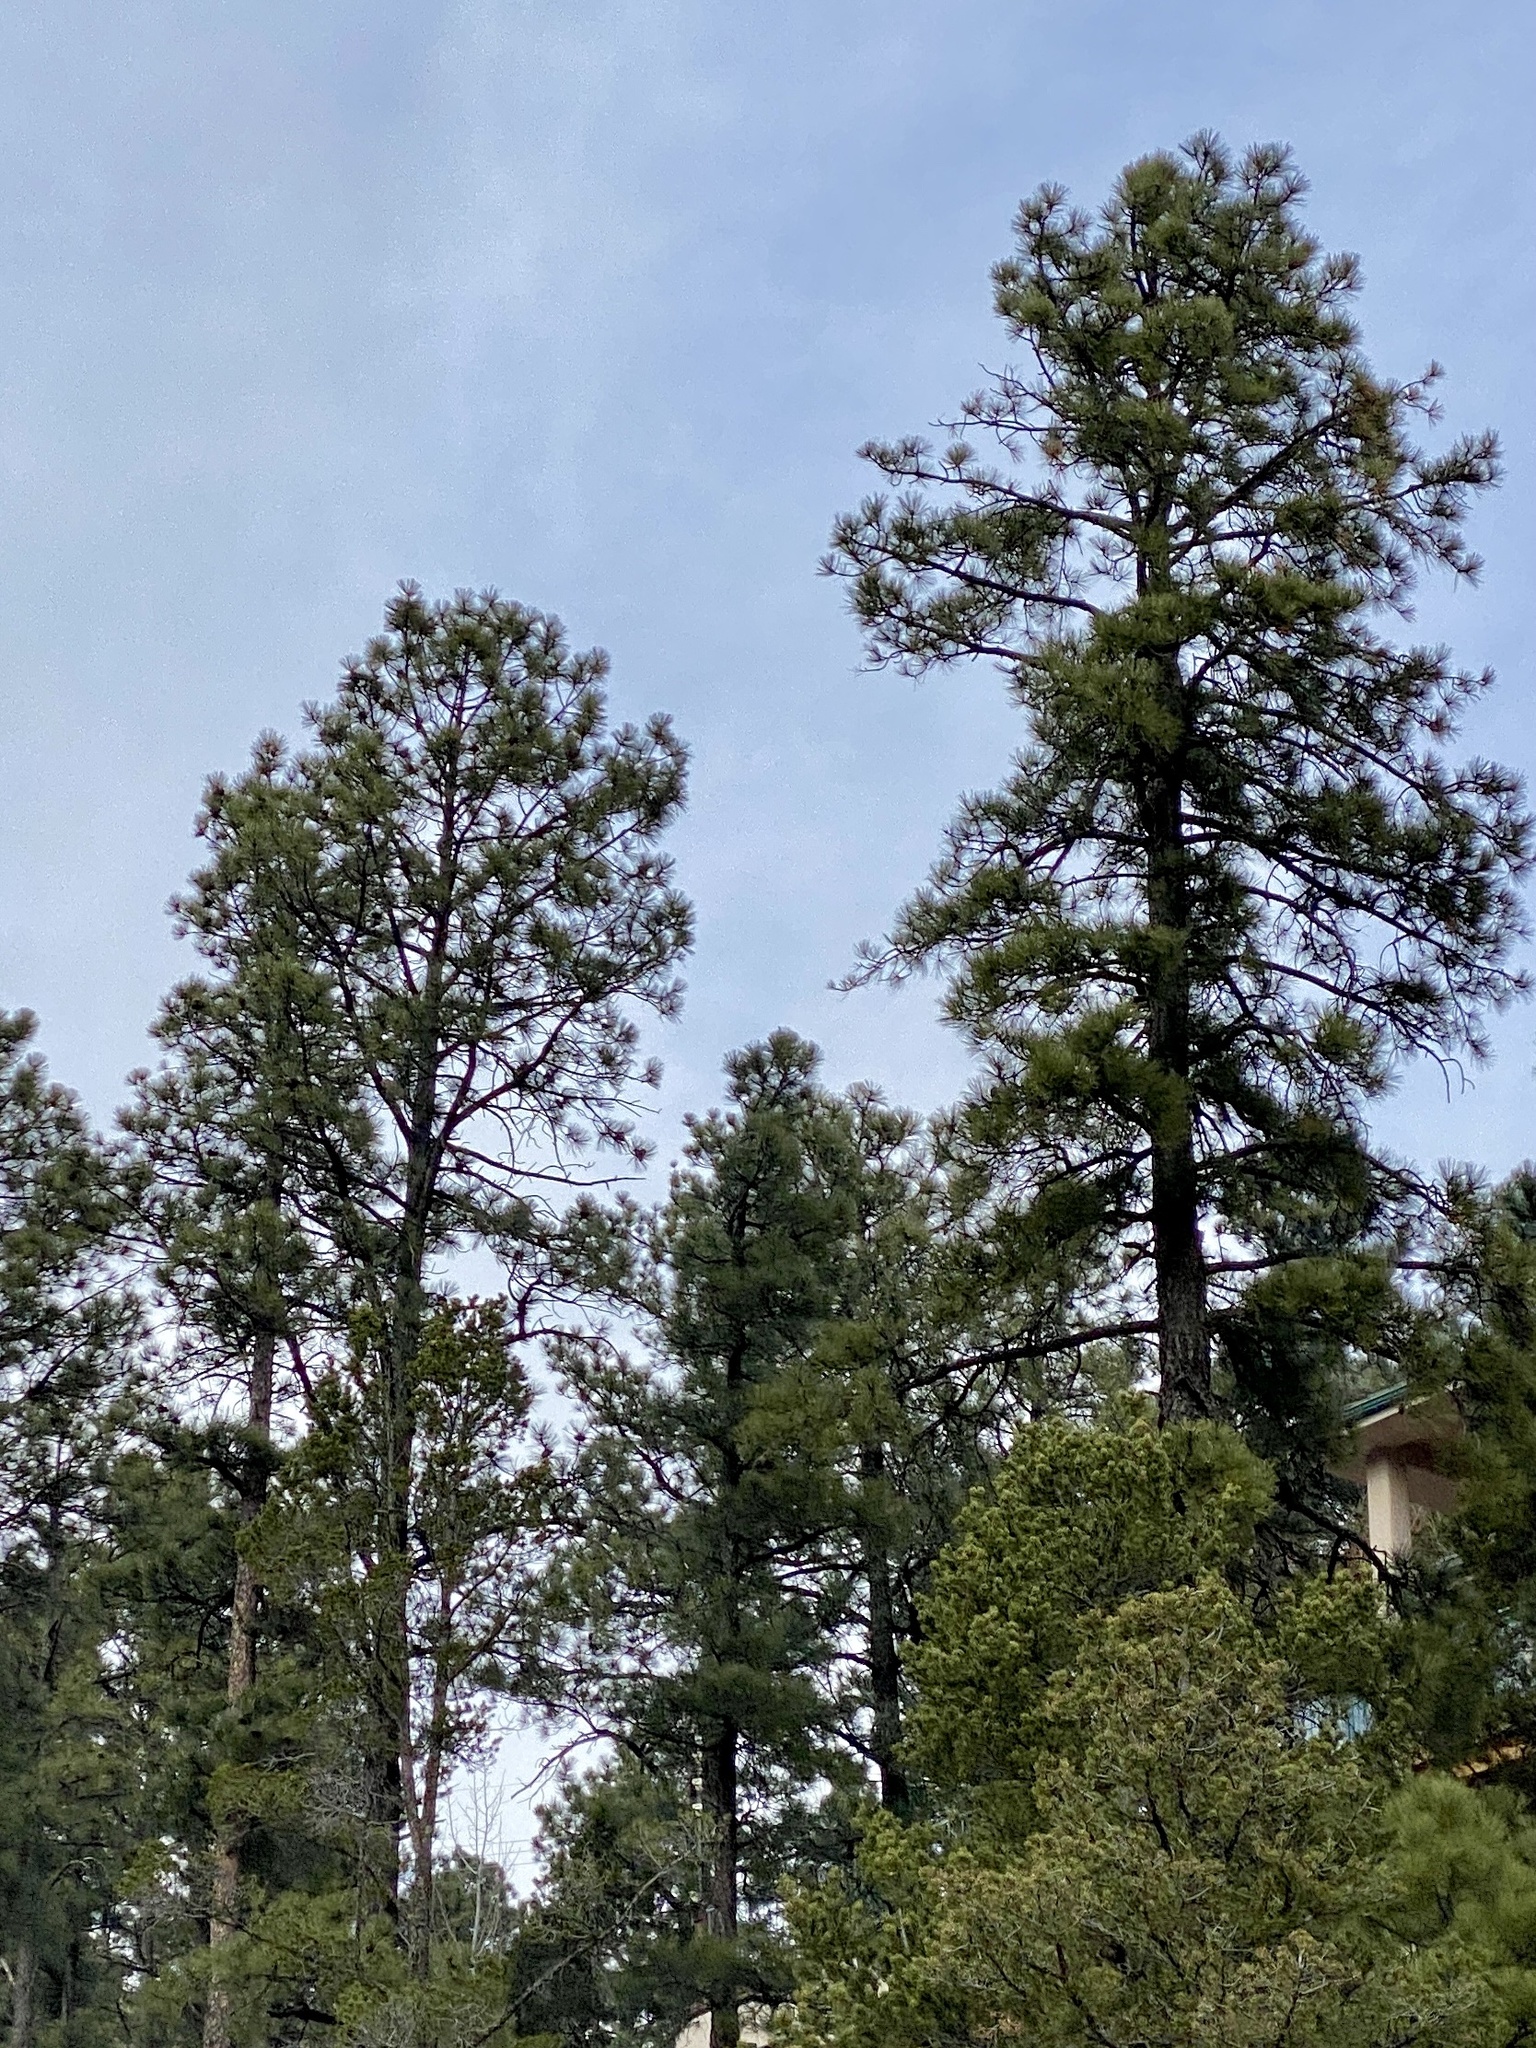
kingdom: Plantae
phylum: Tracheophyta
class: Pinopsida
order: Pinales
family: Pinaceae
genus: Pinus
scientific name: Pinus ponderosa
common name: Western yellow-pine
